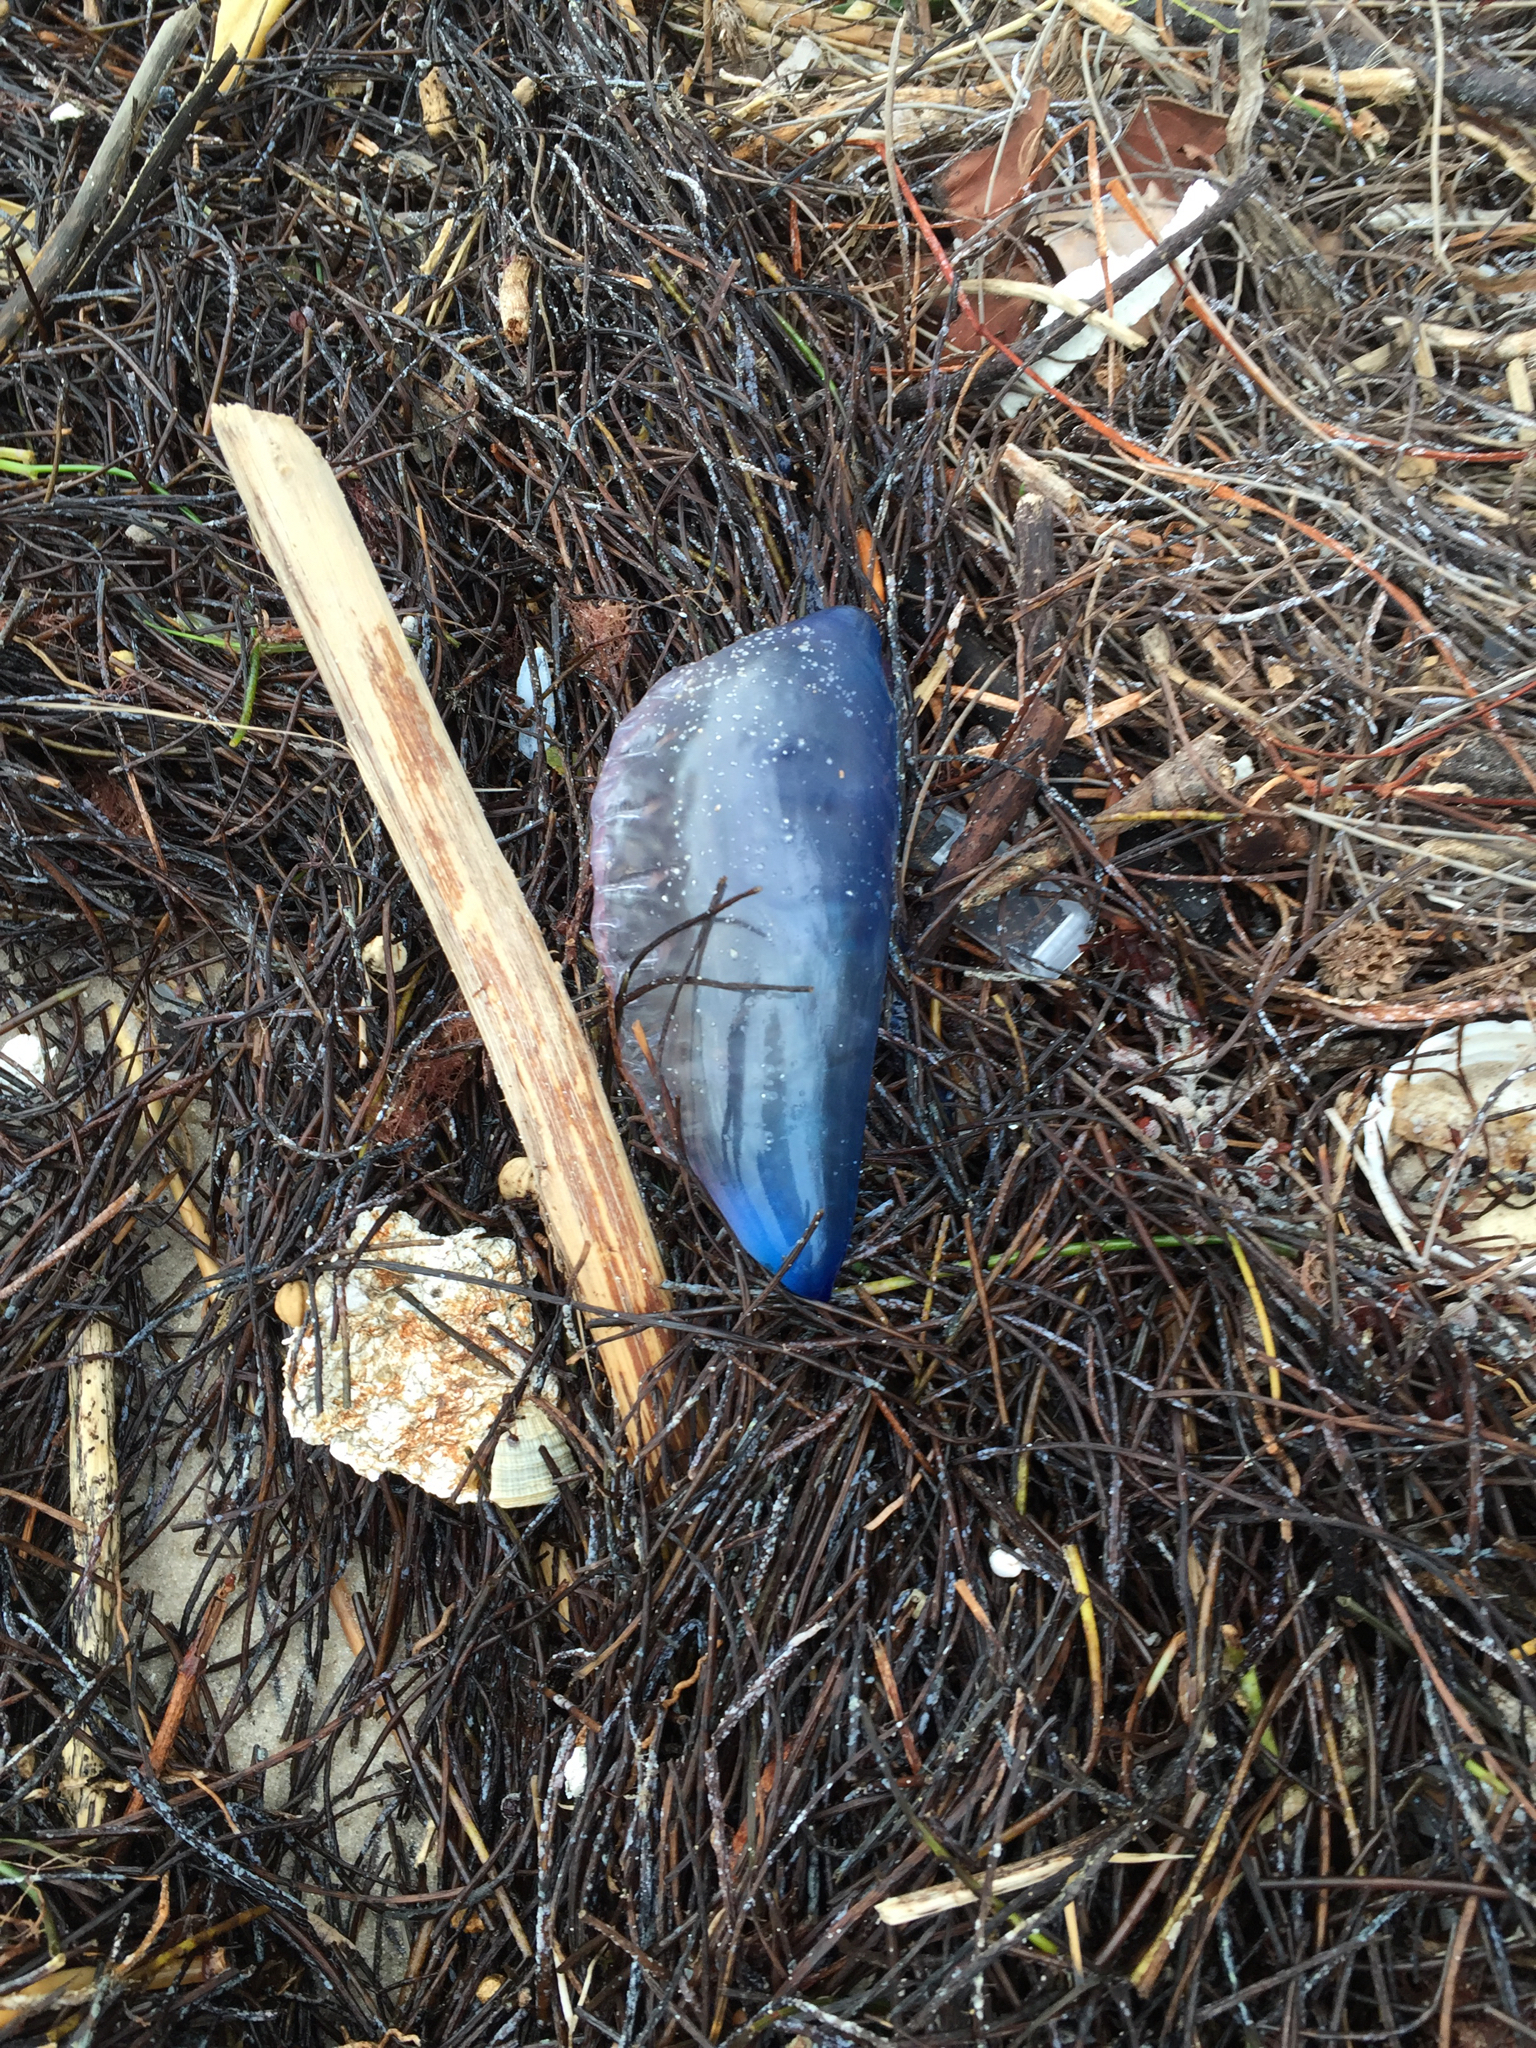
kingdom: Animalia
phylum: Cnidaria
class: Hydrozoa
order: Siphonophorae
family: Physaliidae
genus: Physalia
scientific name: Physalia physalis
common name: Portuguese man-of-war
